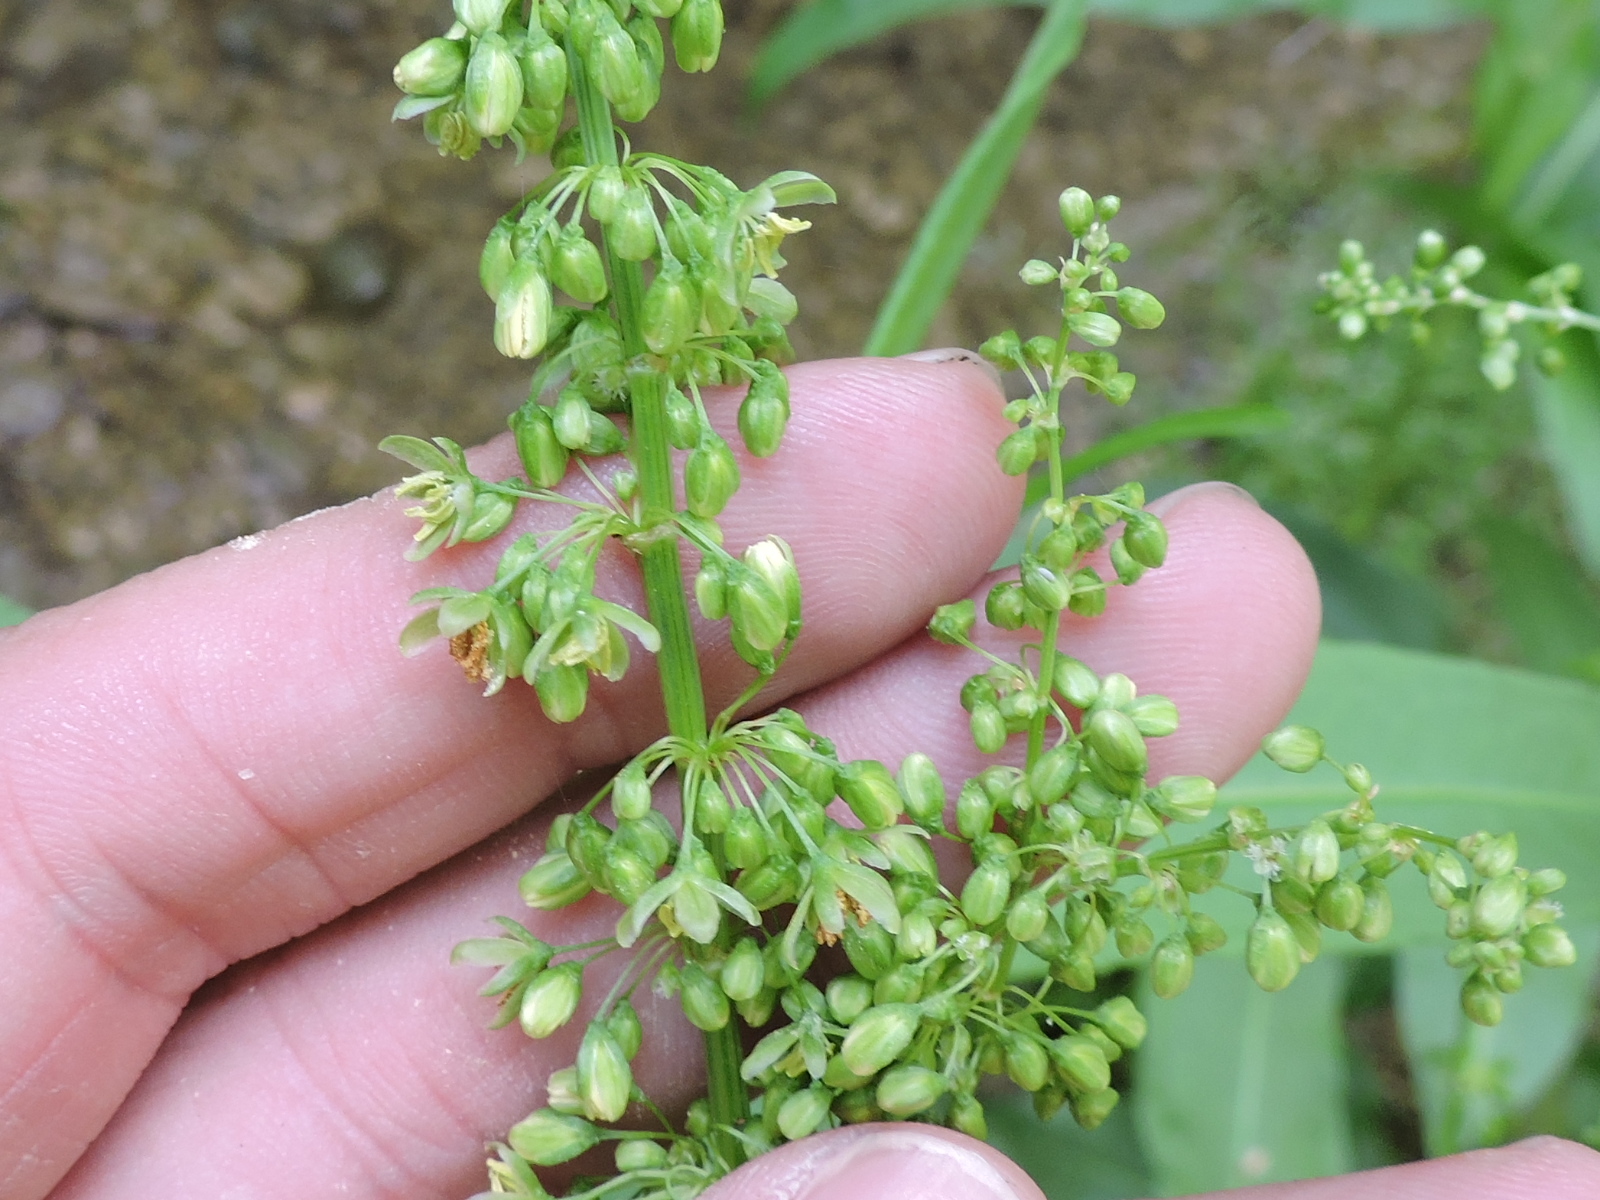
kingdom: Plantae
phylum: Tracheophyta
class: Magnoliopsida
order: Caryophyllales
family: Polygonaceae
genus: Rumex
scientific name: Rumex crispus
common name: Curled dock
